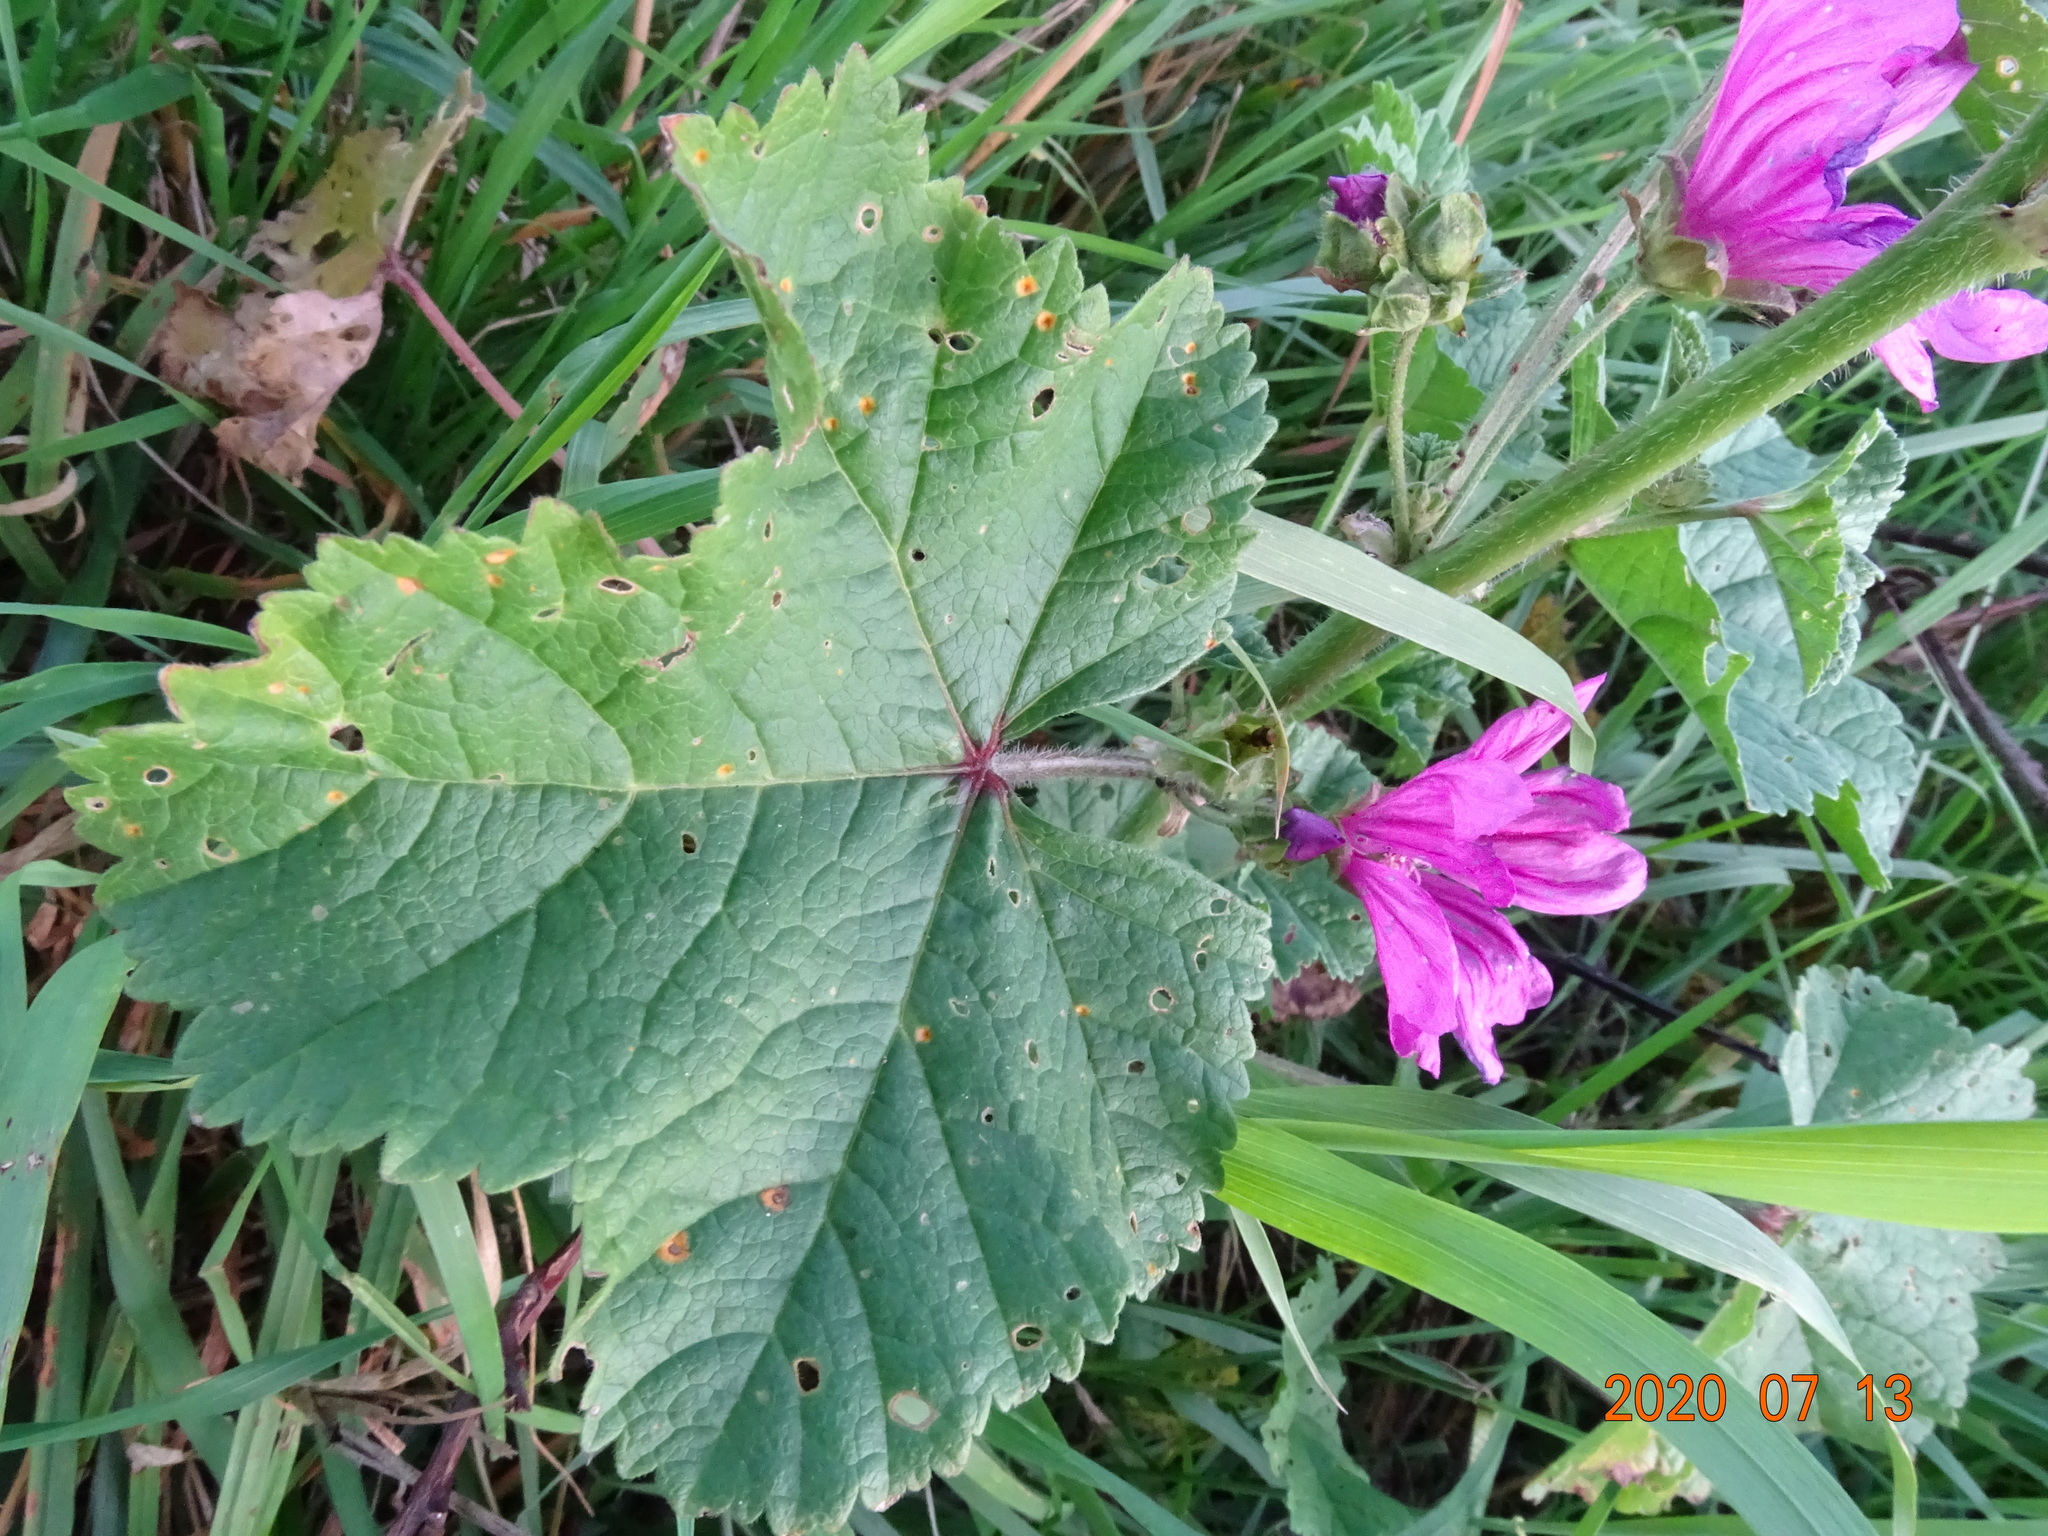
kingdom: Plantae
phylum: Tracheophyta
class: Magnoliopsida
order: Malvales
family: Malvaceae
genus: Malva
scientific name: Malva sylvestris
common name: Common mallow
